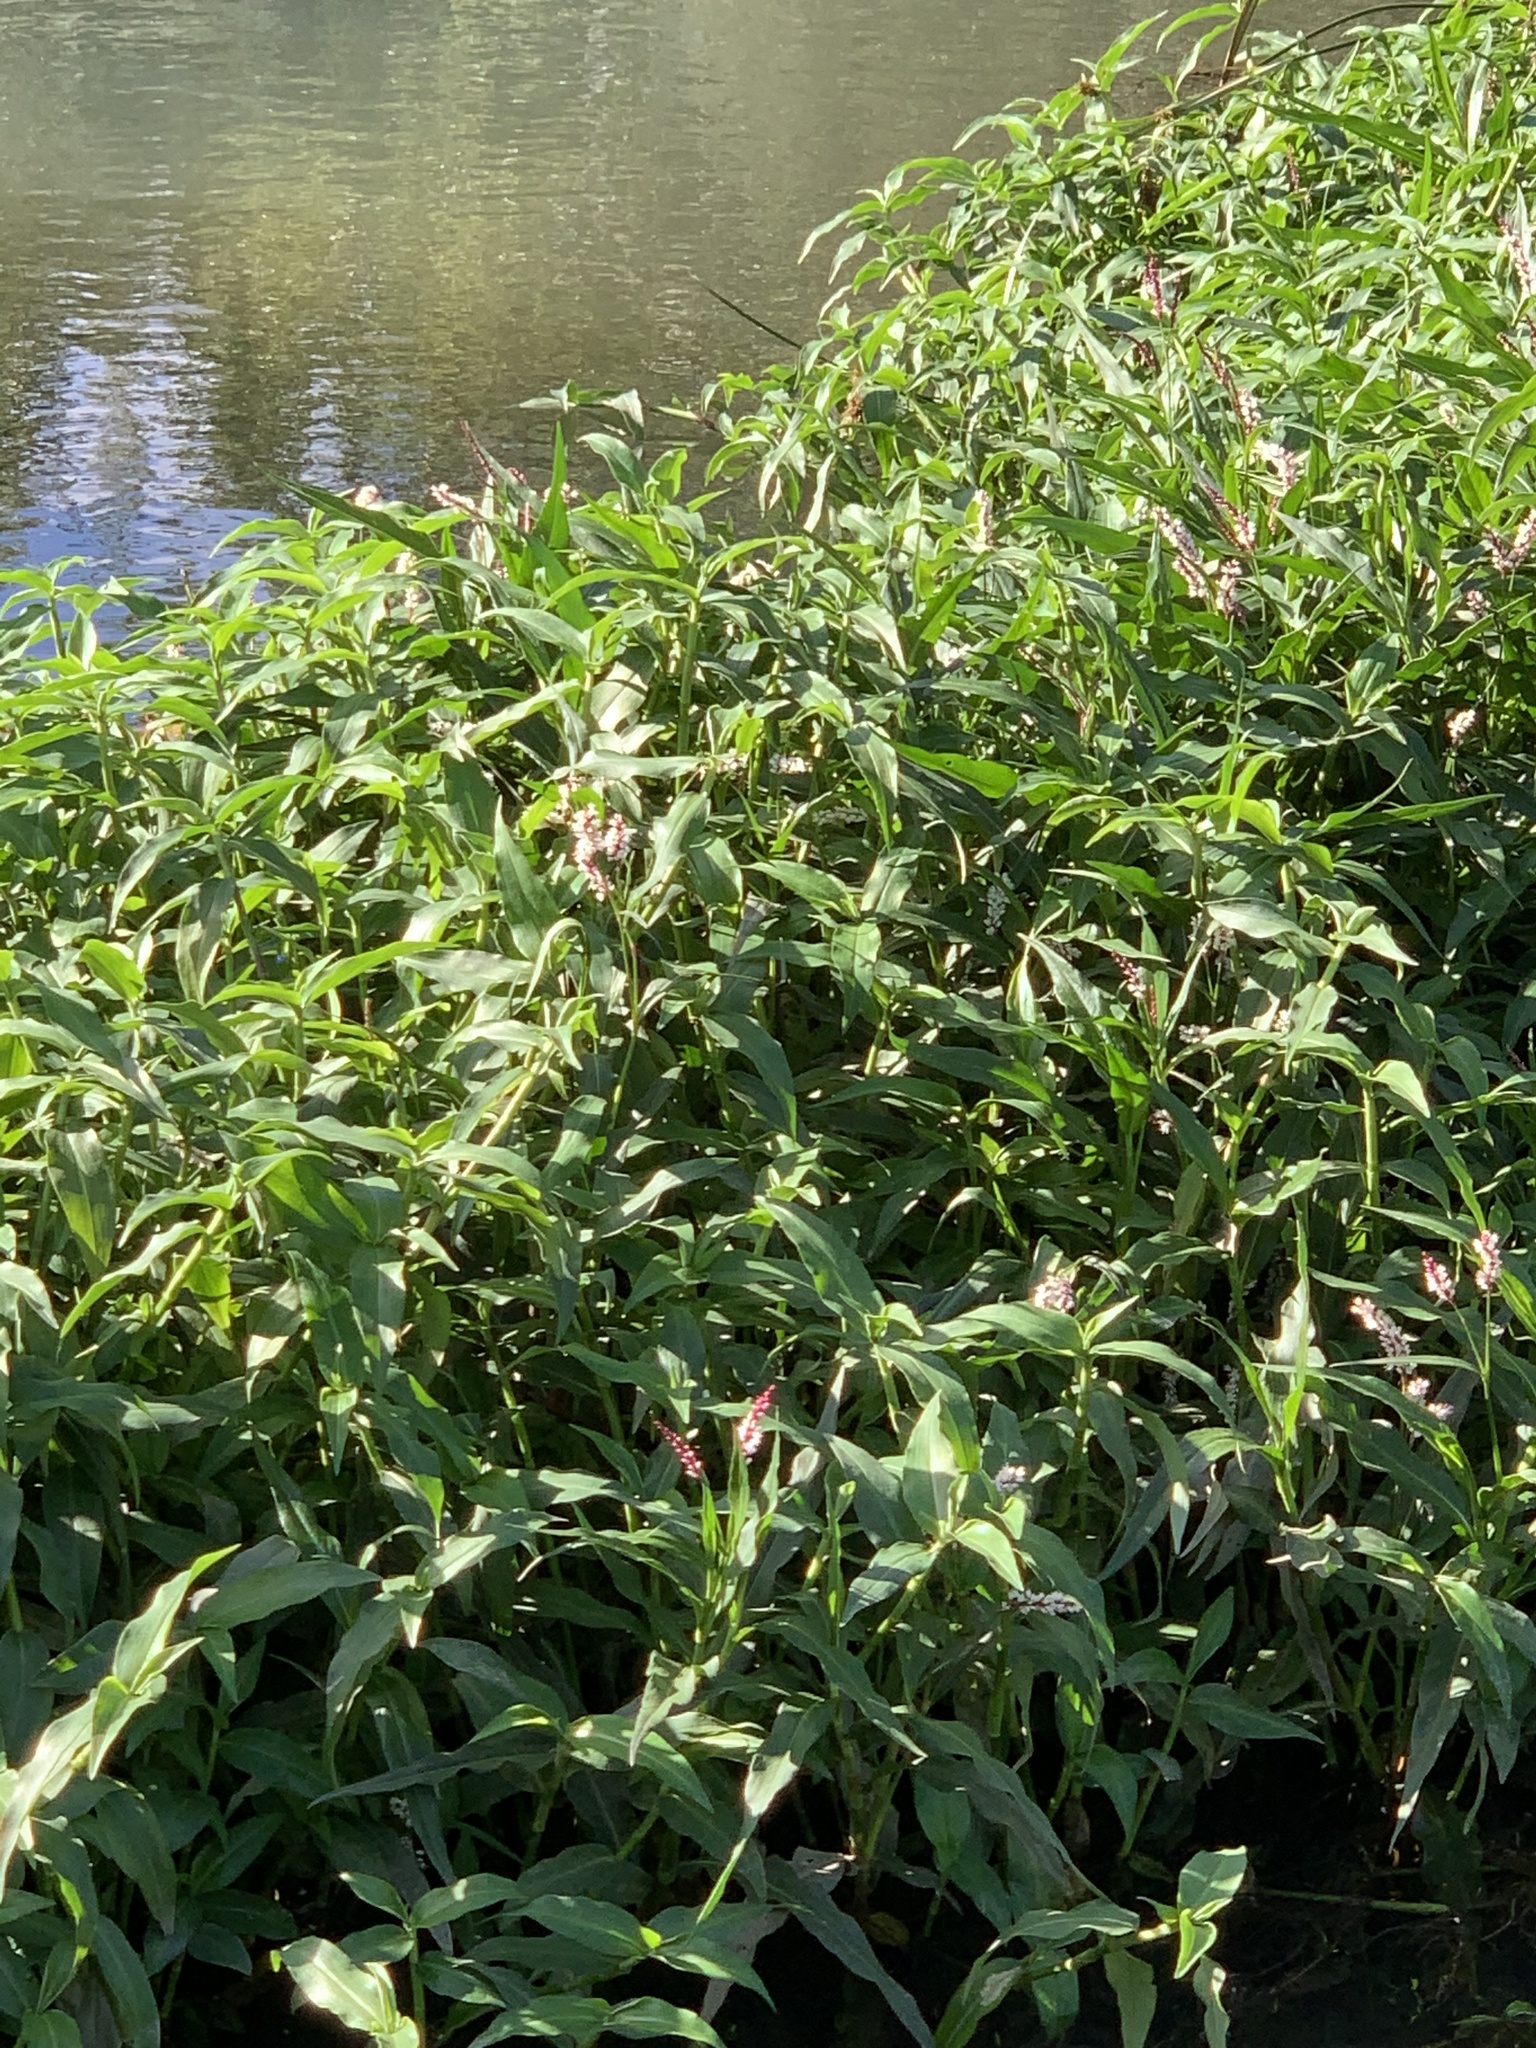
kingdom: Plantae
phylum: Tracheophyta
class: Magnoliopsida
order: Caryophyllales
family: Polygonaceae
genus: Persicaria
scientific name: Persicaria madagascariensis
